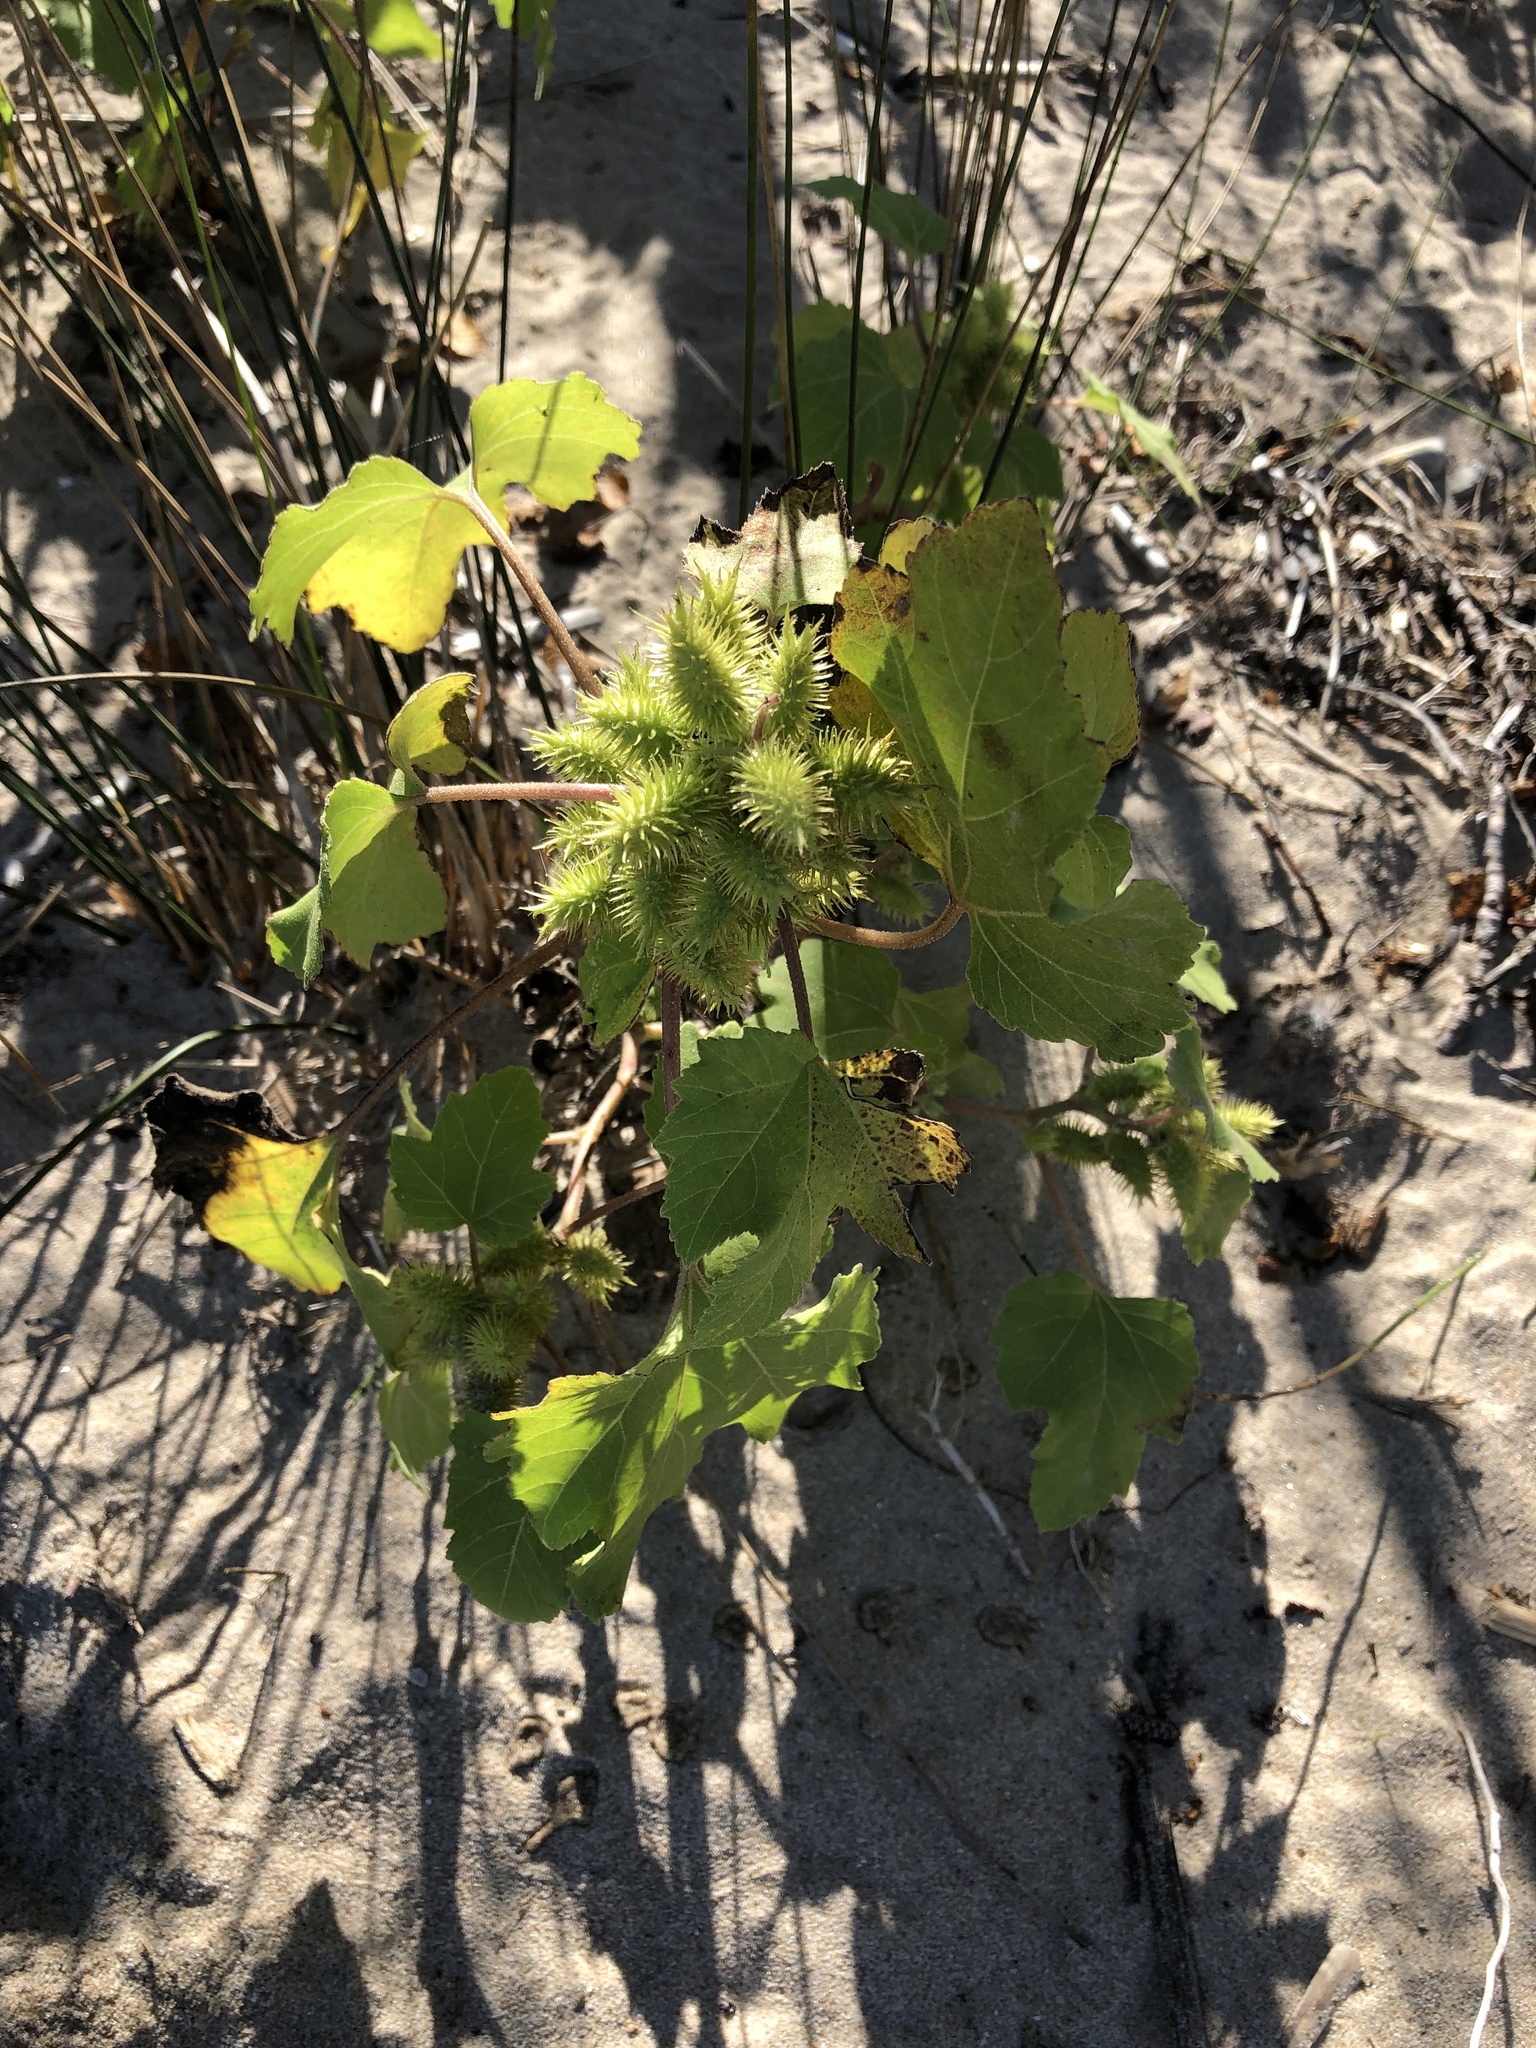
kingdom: Plantae
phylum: Tracheophyta
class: Magnoliopsida
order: Asterales
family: Asteraceae
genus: Xanthium
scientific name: Xanthium strumarium
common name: Rough cocklebur
